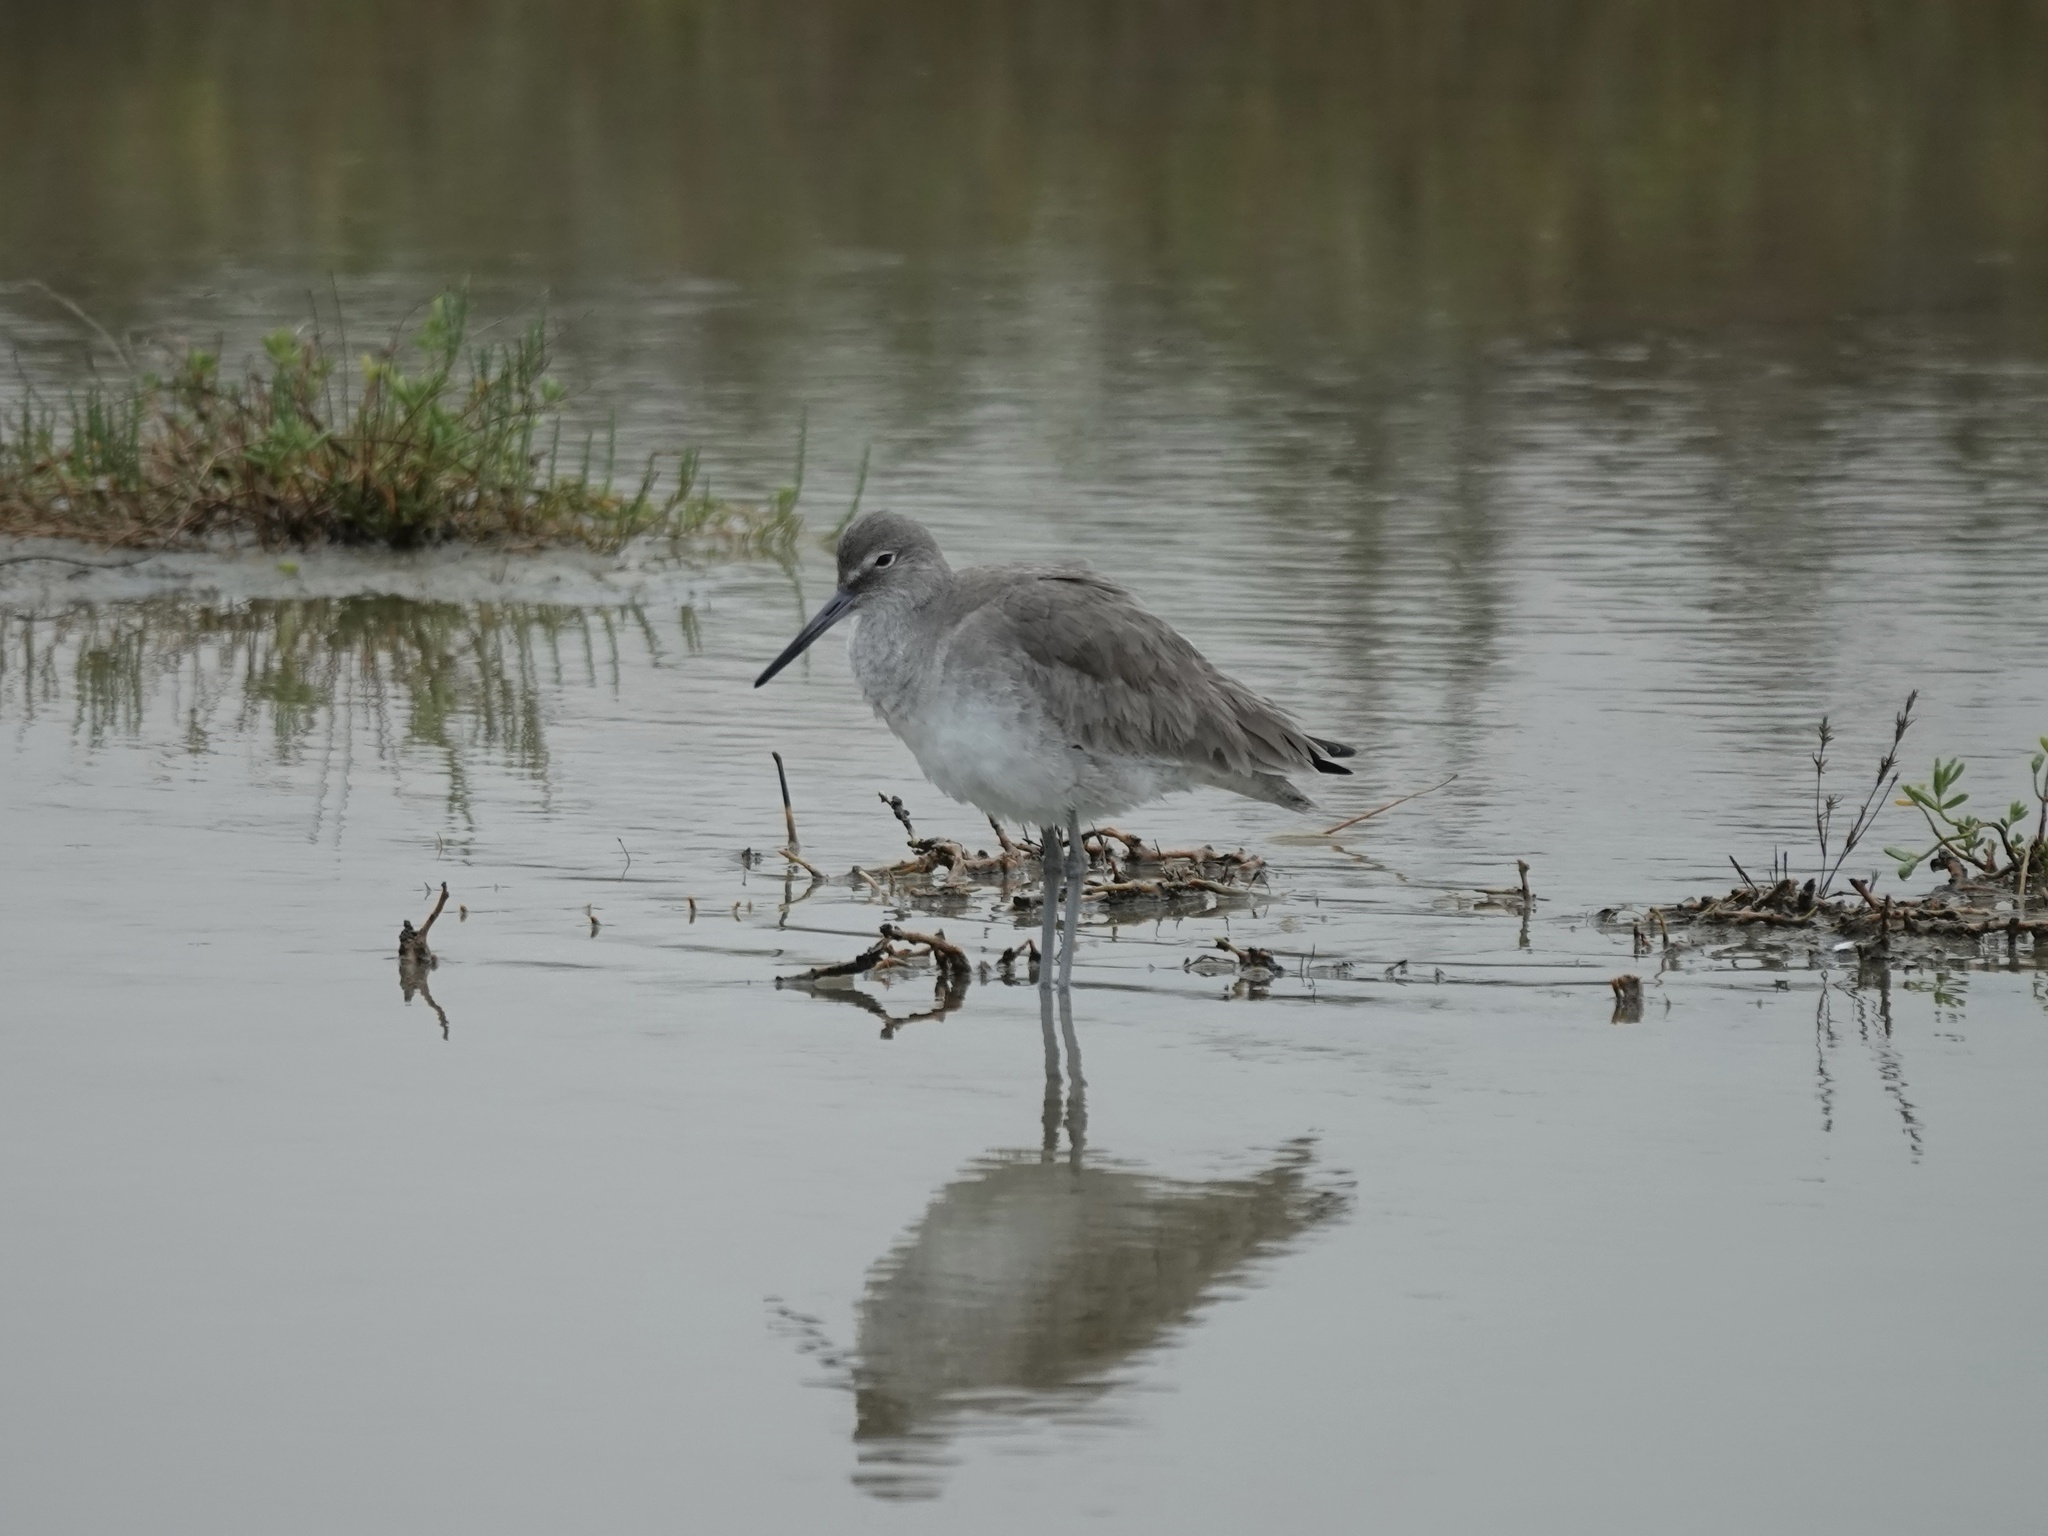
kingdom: Animalia
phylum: Chordata
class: Aves
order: Charadriiformes
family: Scolopacidae
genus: Tringa
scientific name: Tringa semipalmata
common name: Willet
